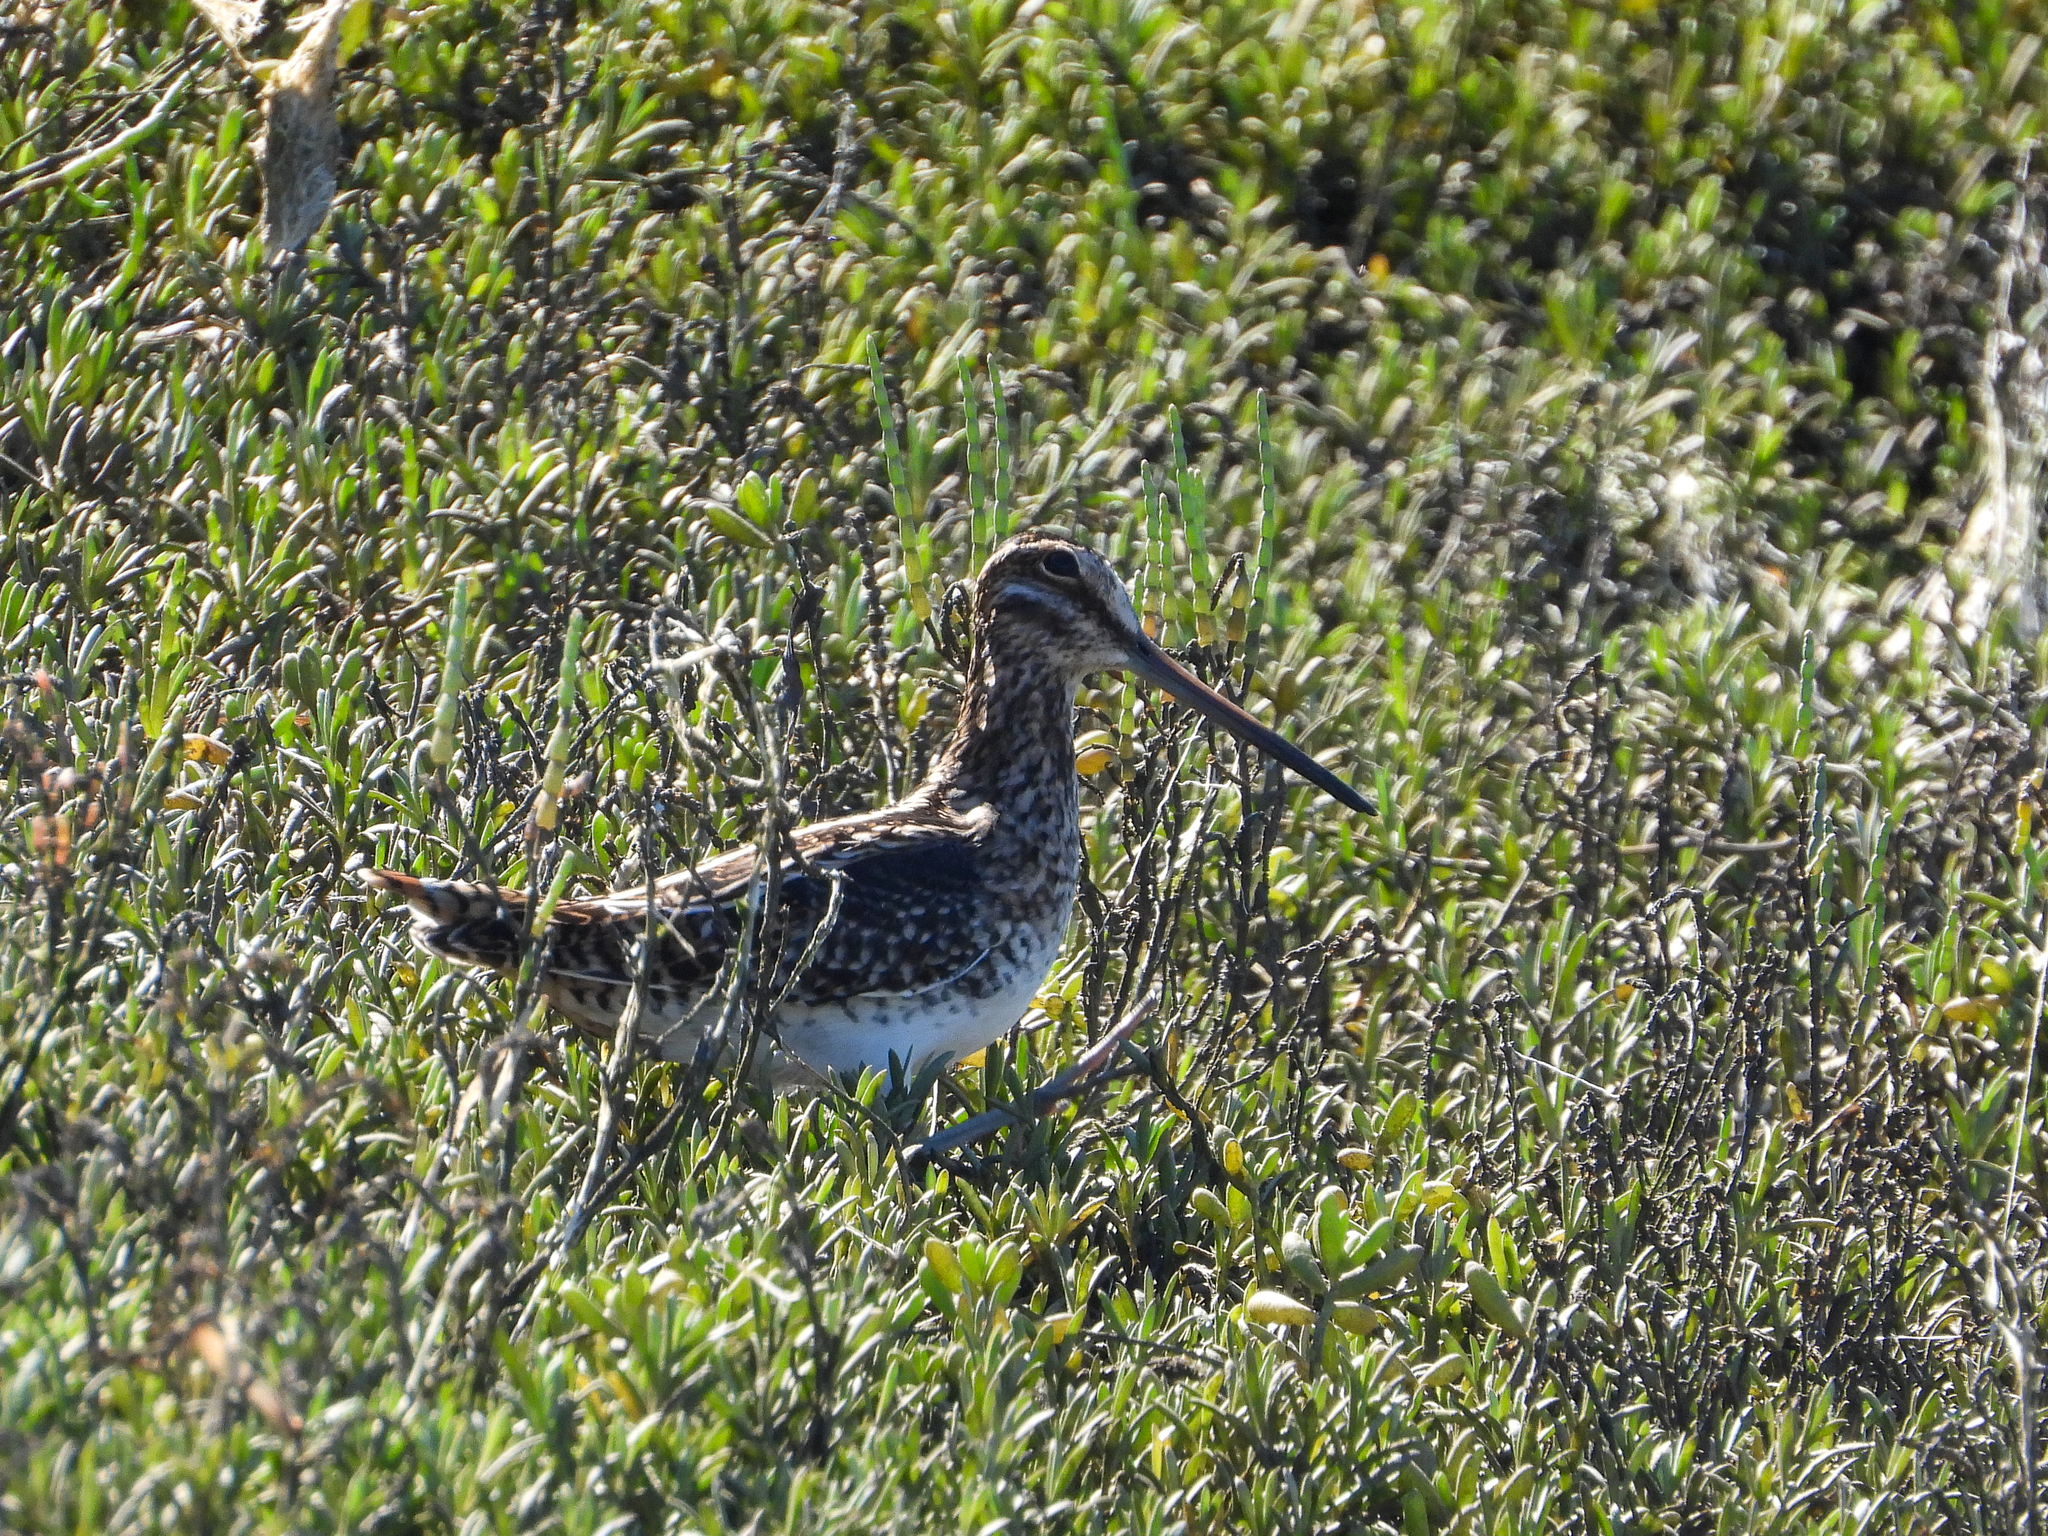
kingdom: Animalia
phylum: Chordata
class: Aves
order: Charadriiformes
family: Scolopacidae
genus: Gallinago
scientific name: Gallinago delicata
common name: Wilson's snipe
